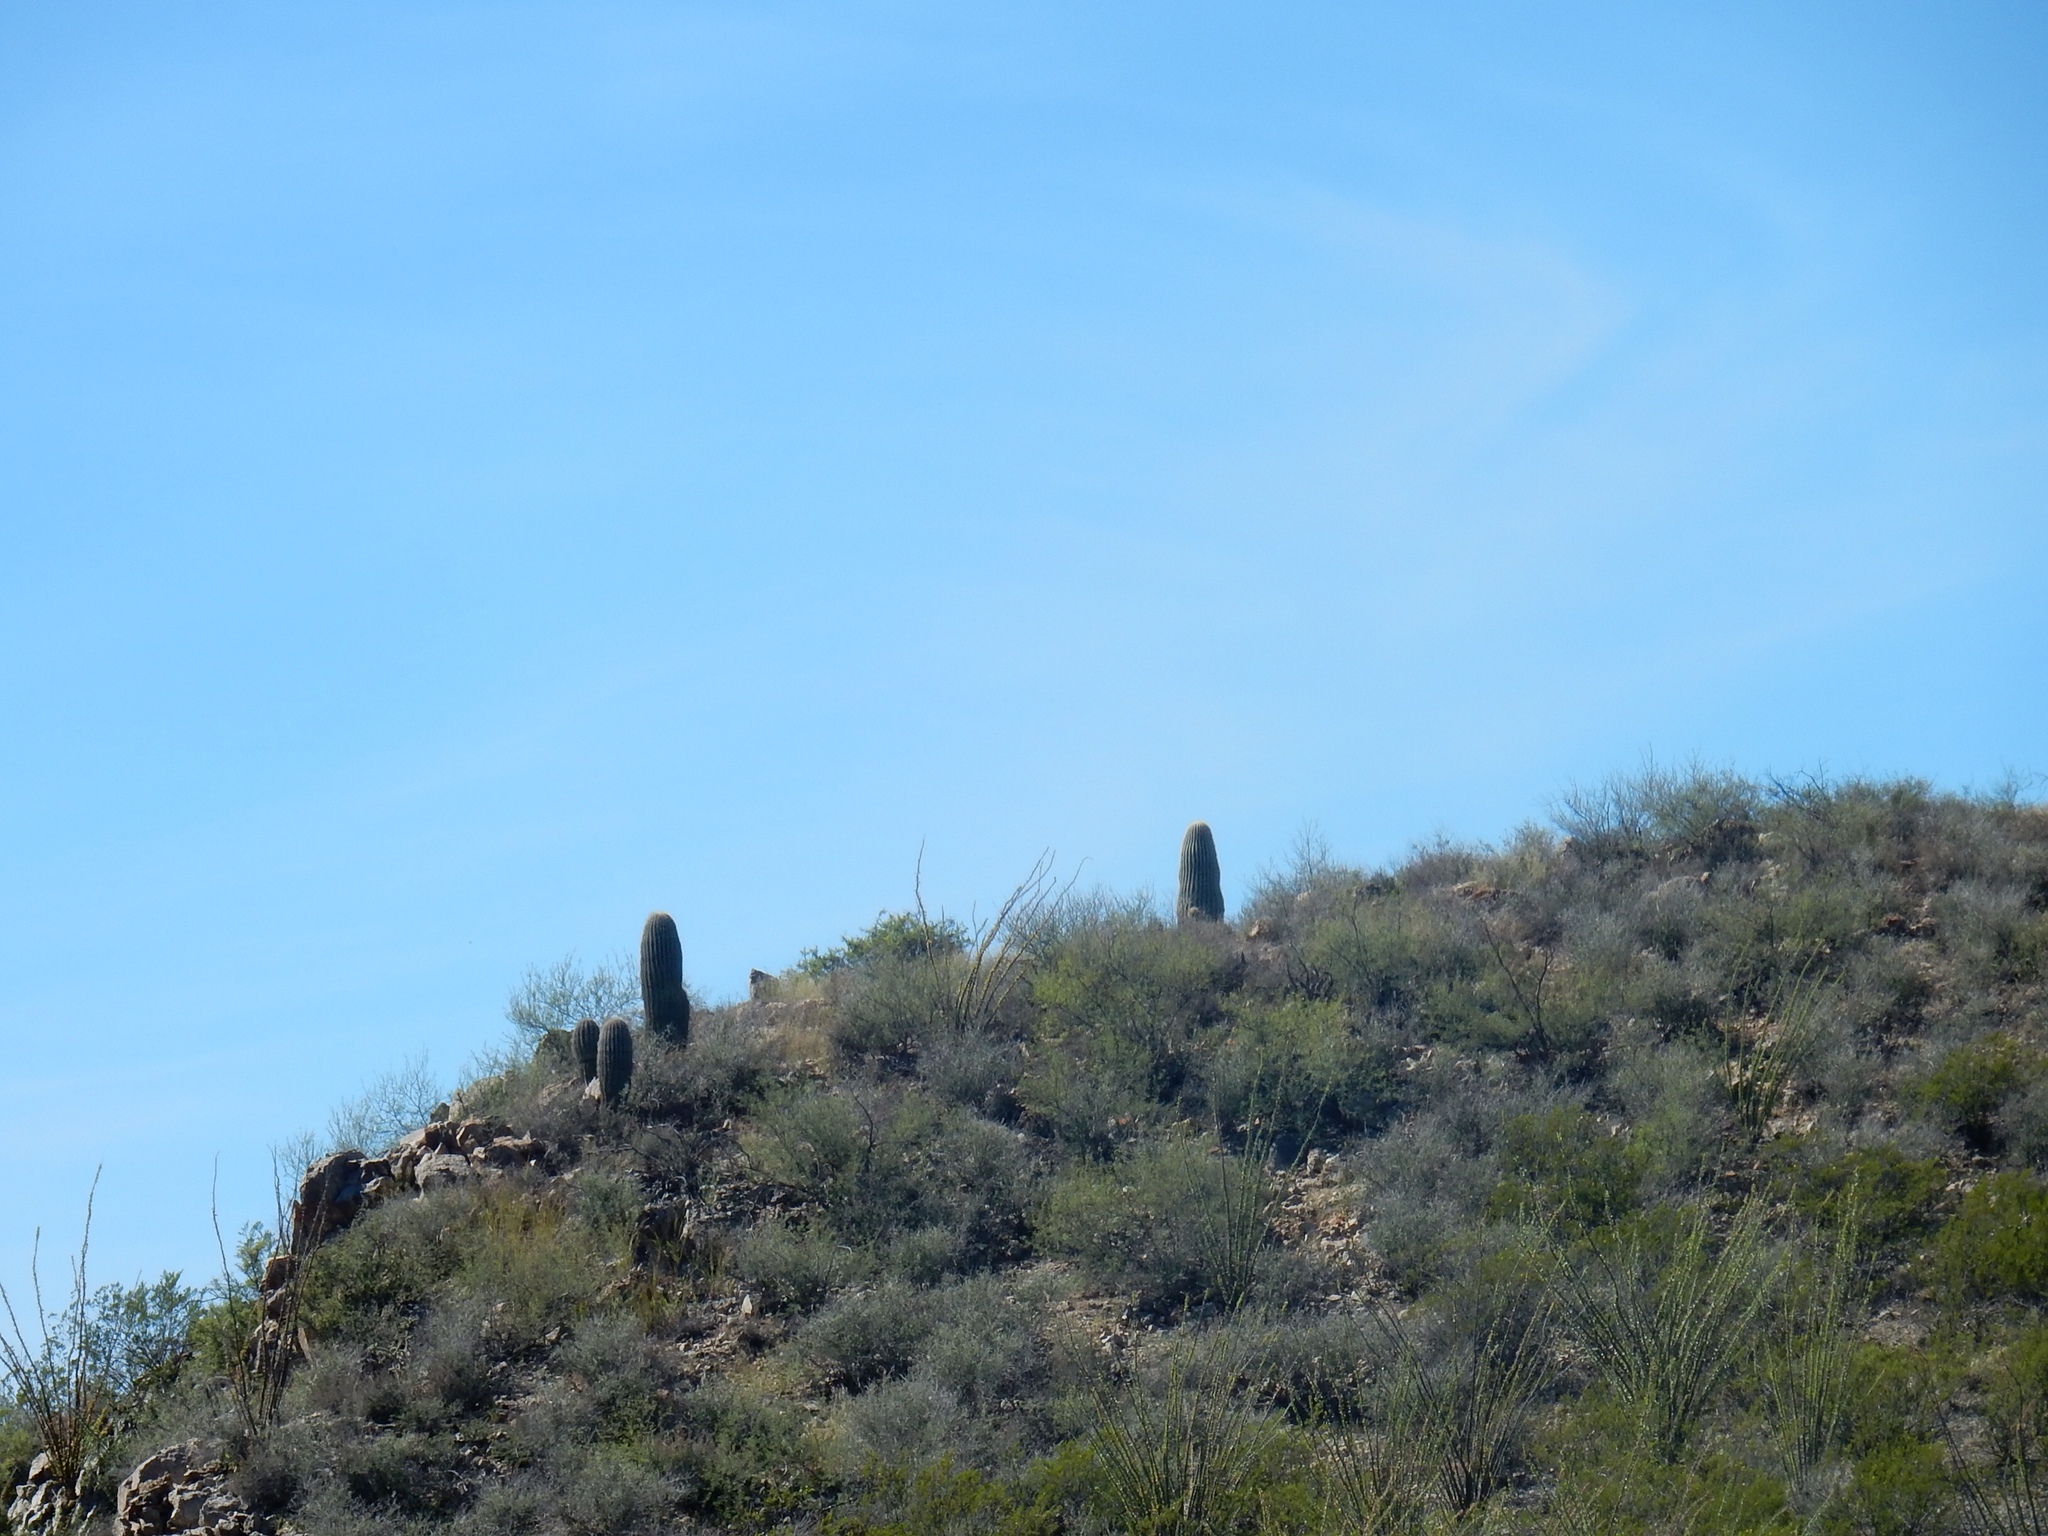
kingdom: Plantae
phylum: Tracheophyta
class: Magnoliopsida
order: Caryophyllales
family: Cactaceae
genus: Carnegiea
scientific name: Carnegiea gigantea
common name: Saguaro
